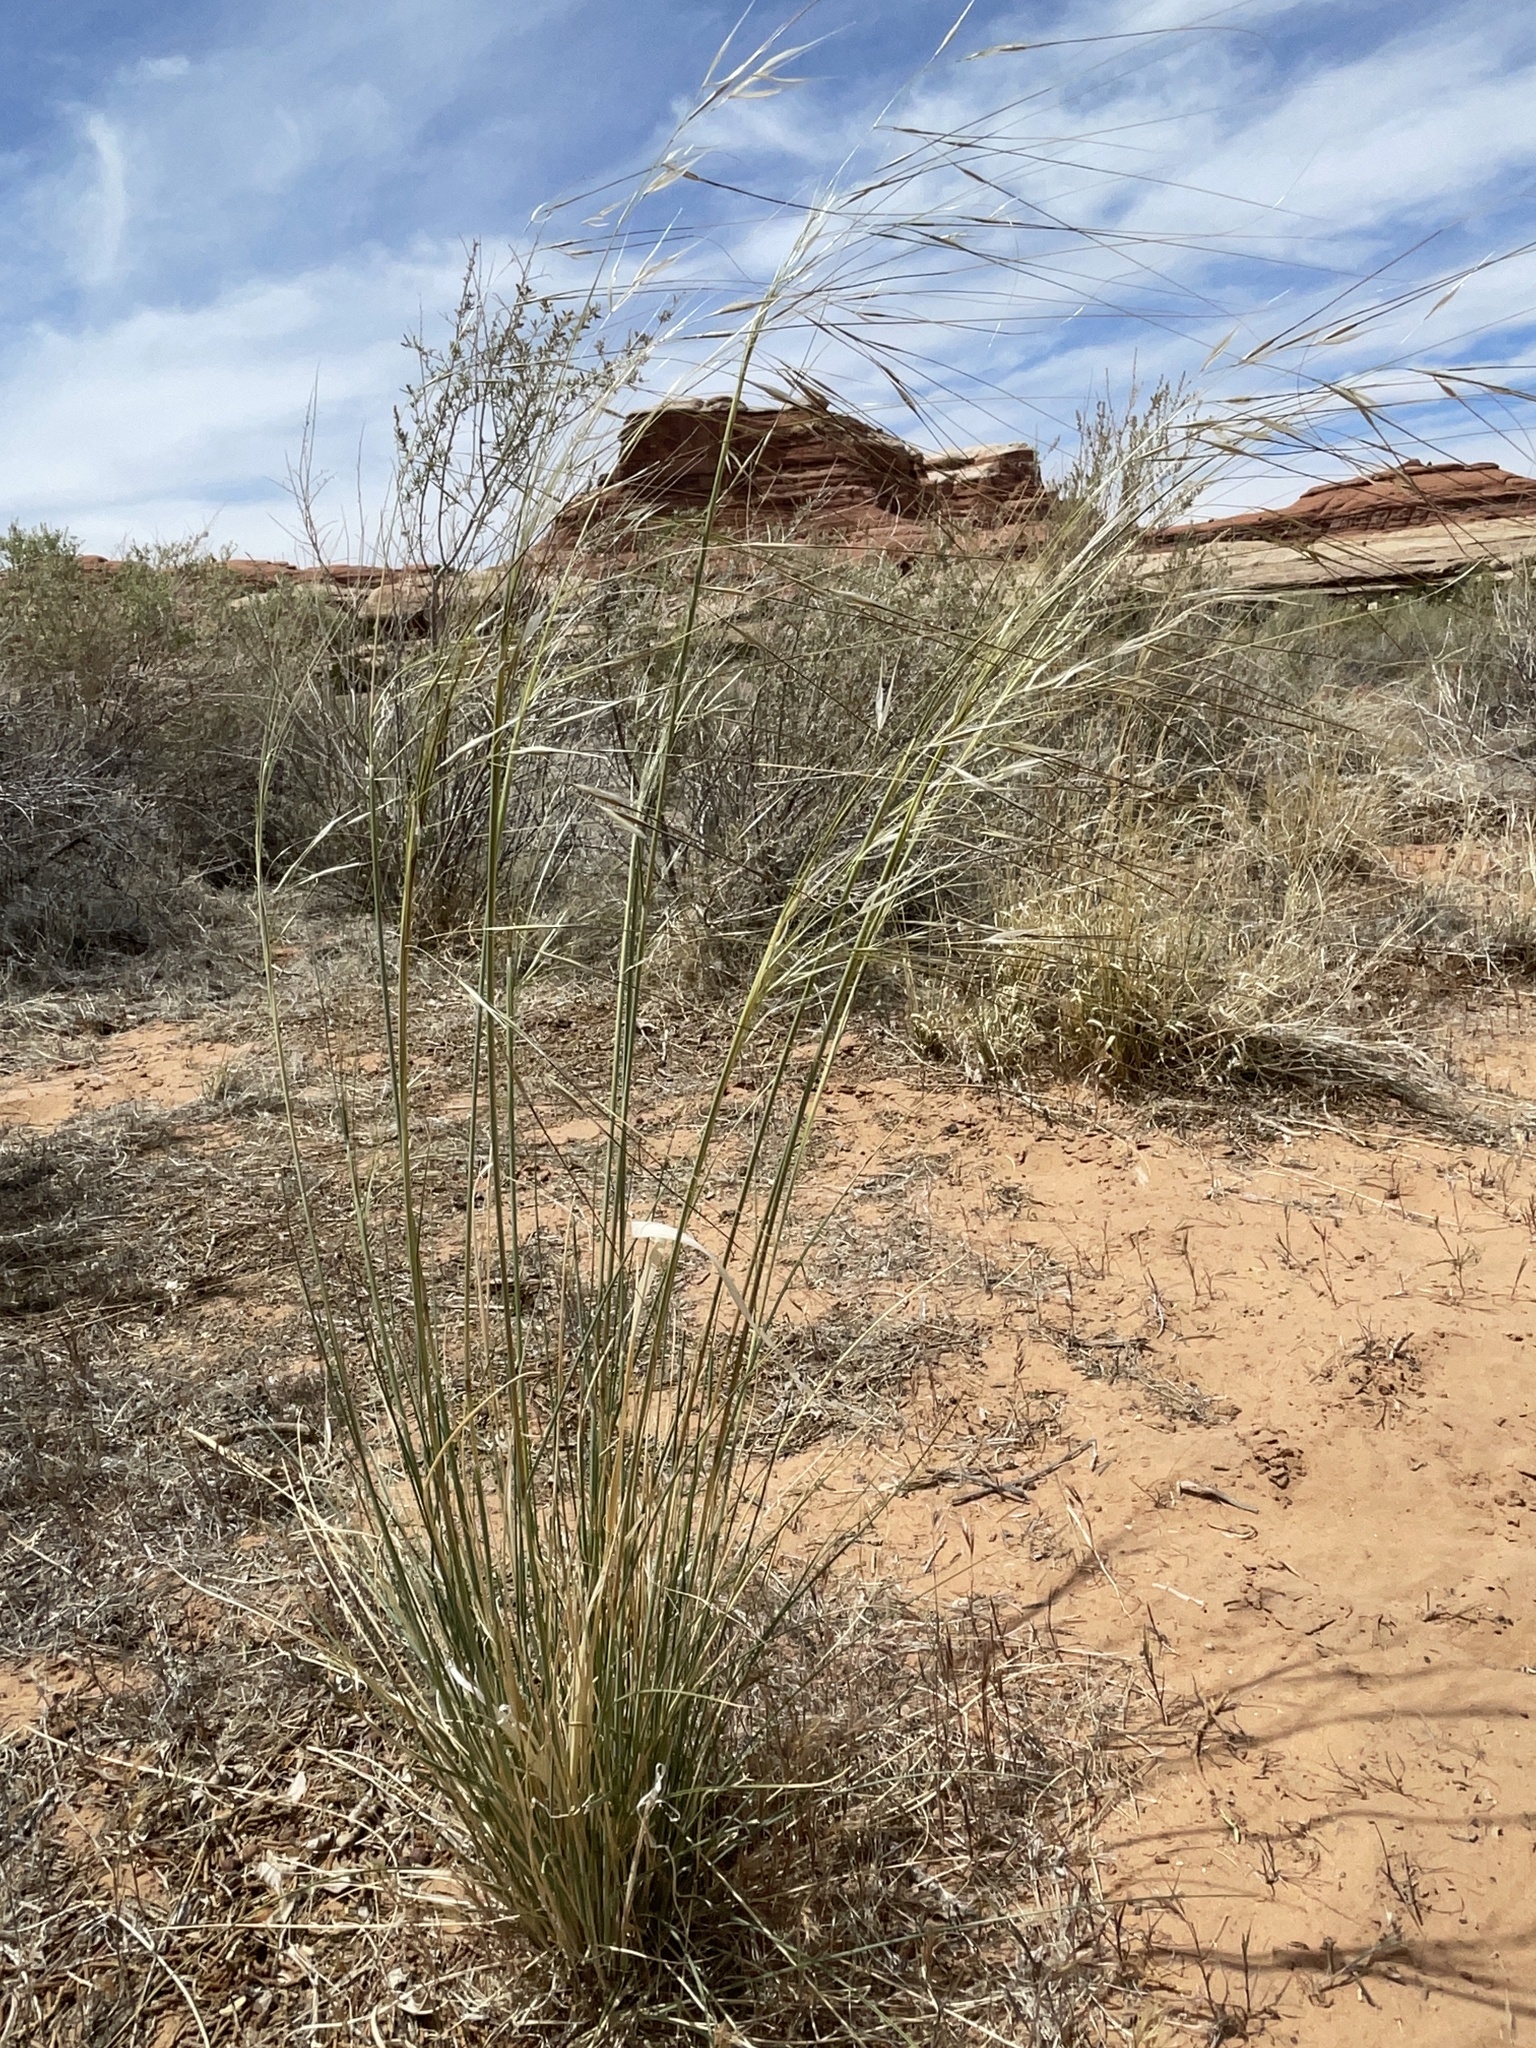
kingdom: Plantae
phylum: Tracheophyta
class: Liliopsida
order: Poales
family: Poaceae
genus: Hesperostipa
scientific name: Hesperostipa comata
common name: Needle-and-thread grass
